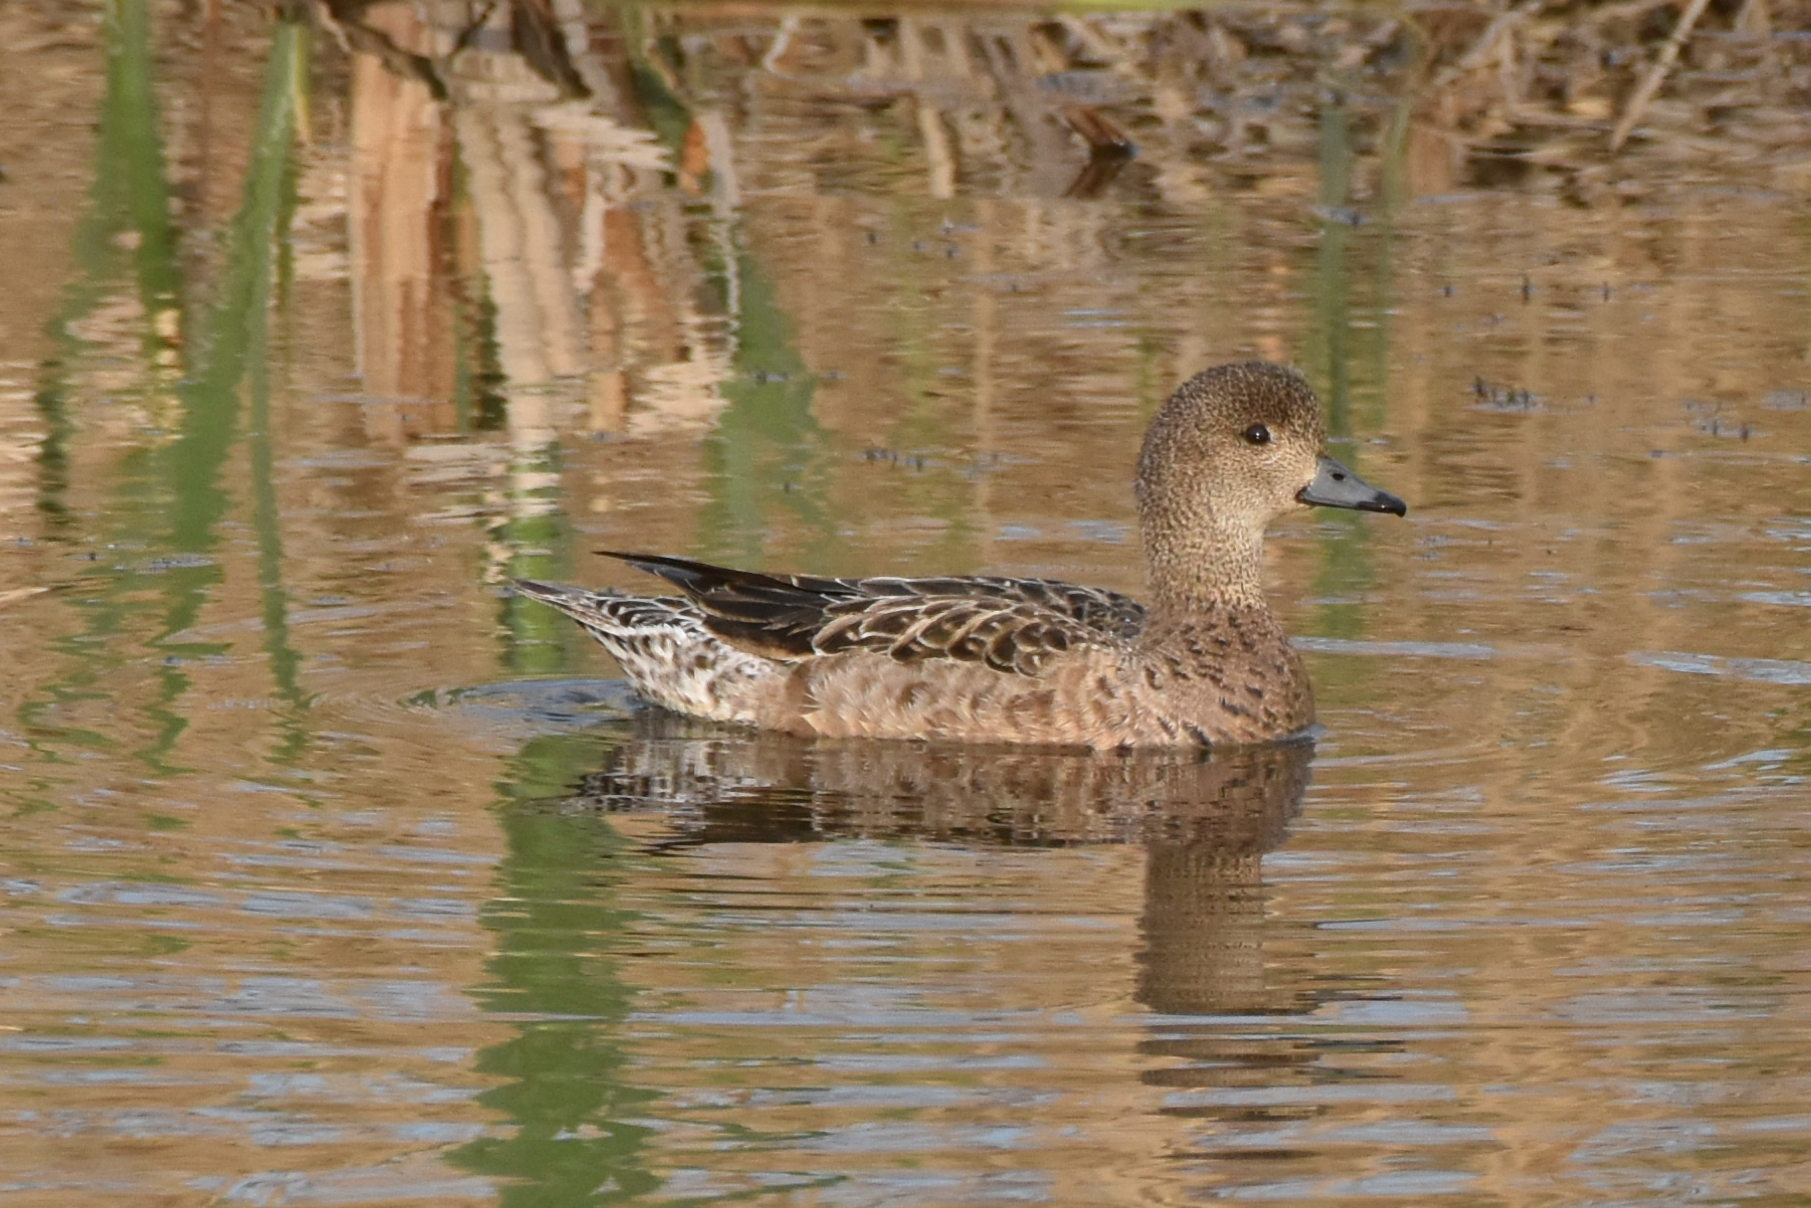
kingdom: Animalia
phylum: Chordata
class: Aves
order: Anseriformes
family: Anatidae
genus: Mareca
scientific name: Mareca penelope
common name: Eurasian wigeon
